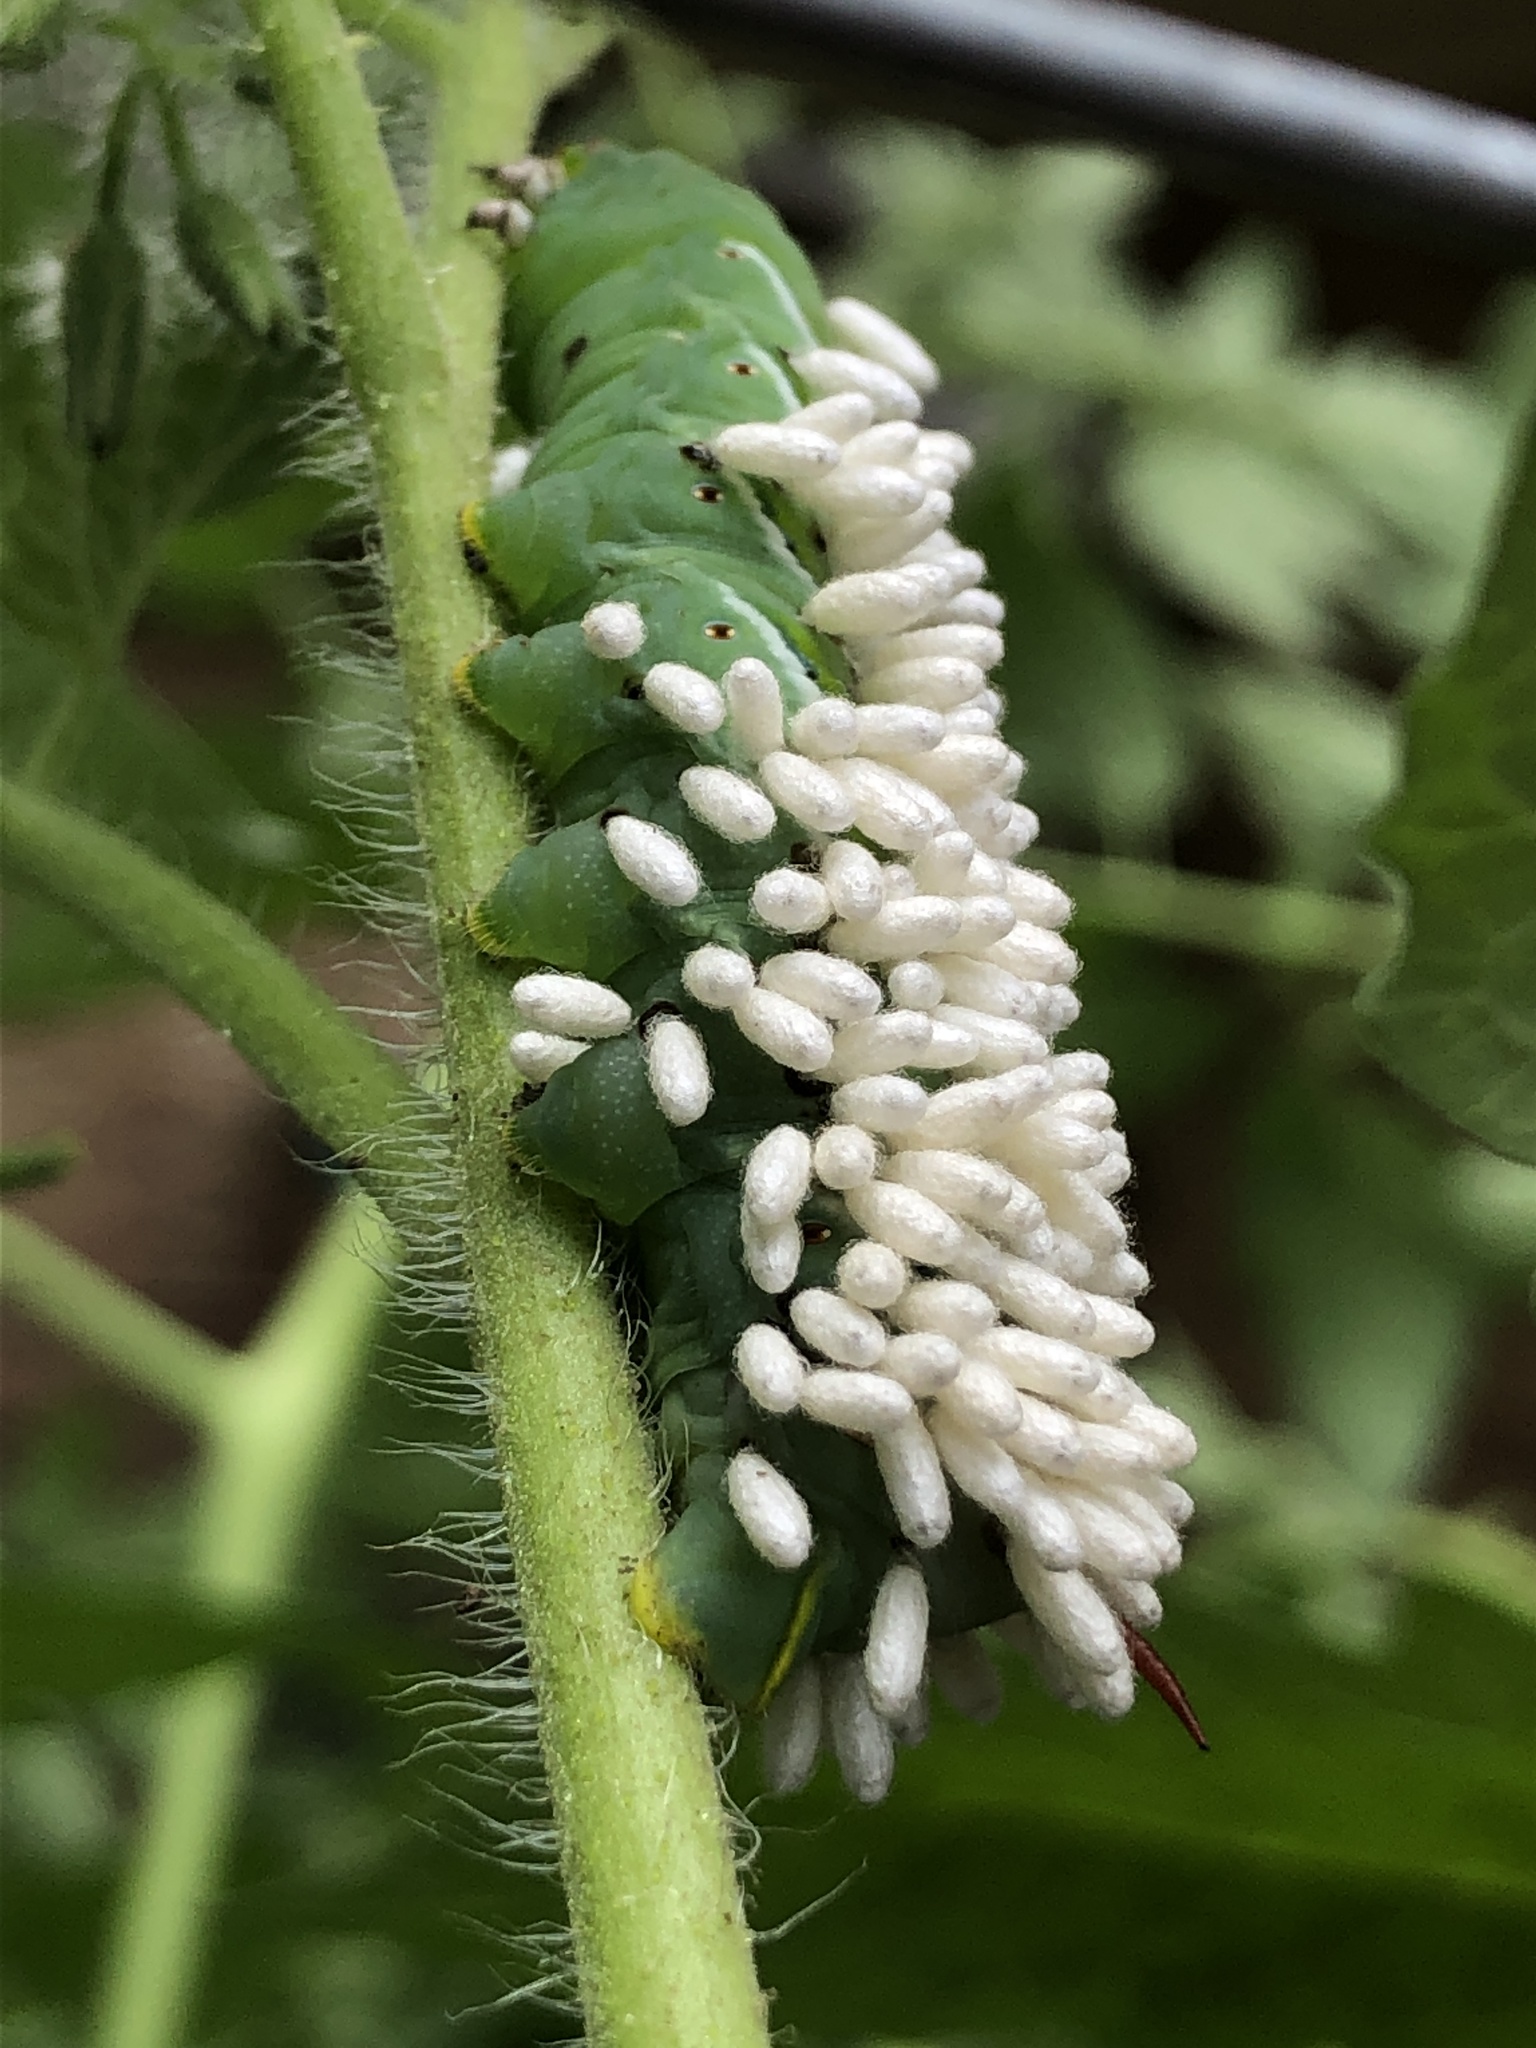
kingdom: Animalia
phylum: Arthropoda
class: Insecta
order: Hymenoptera
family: Braconidae
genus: Cotesia
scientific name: Cotesia congregata
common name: Hornworm parasitoid wasp
